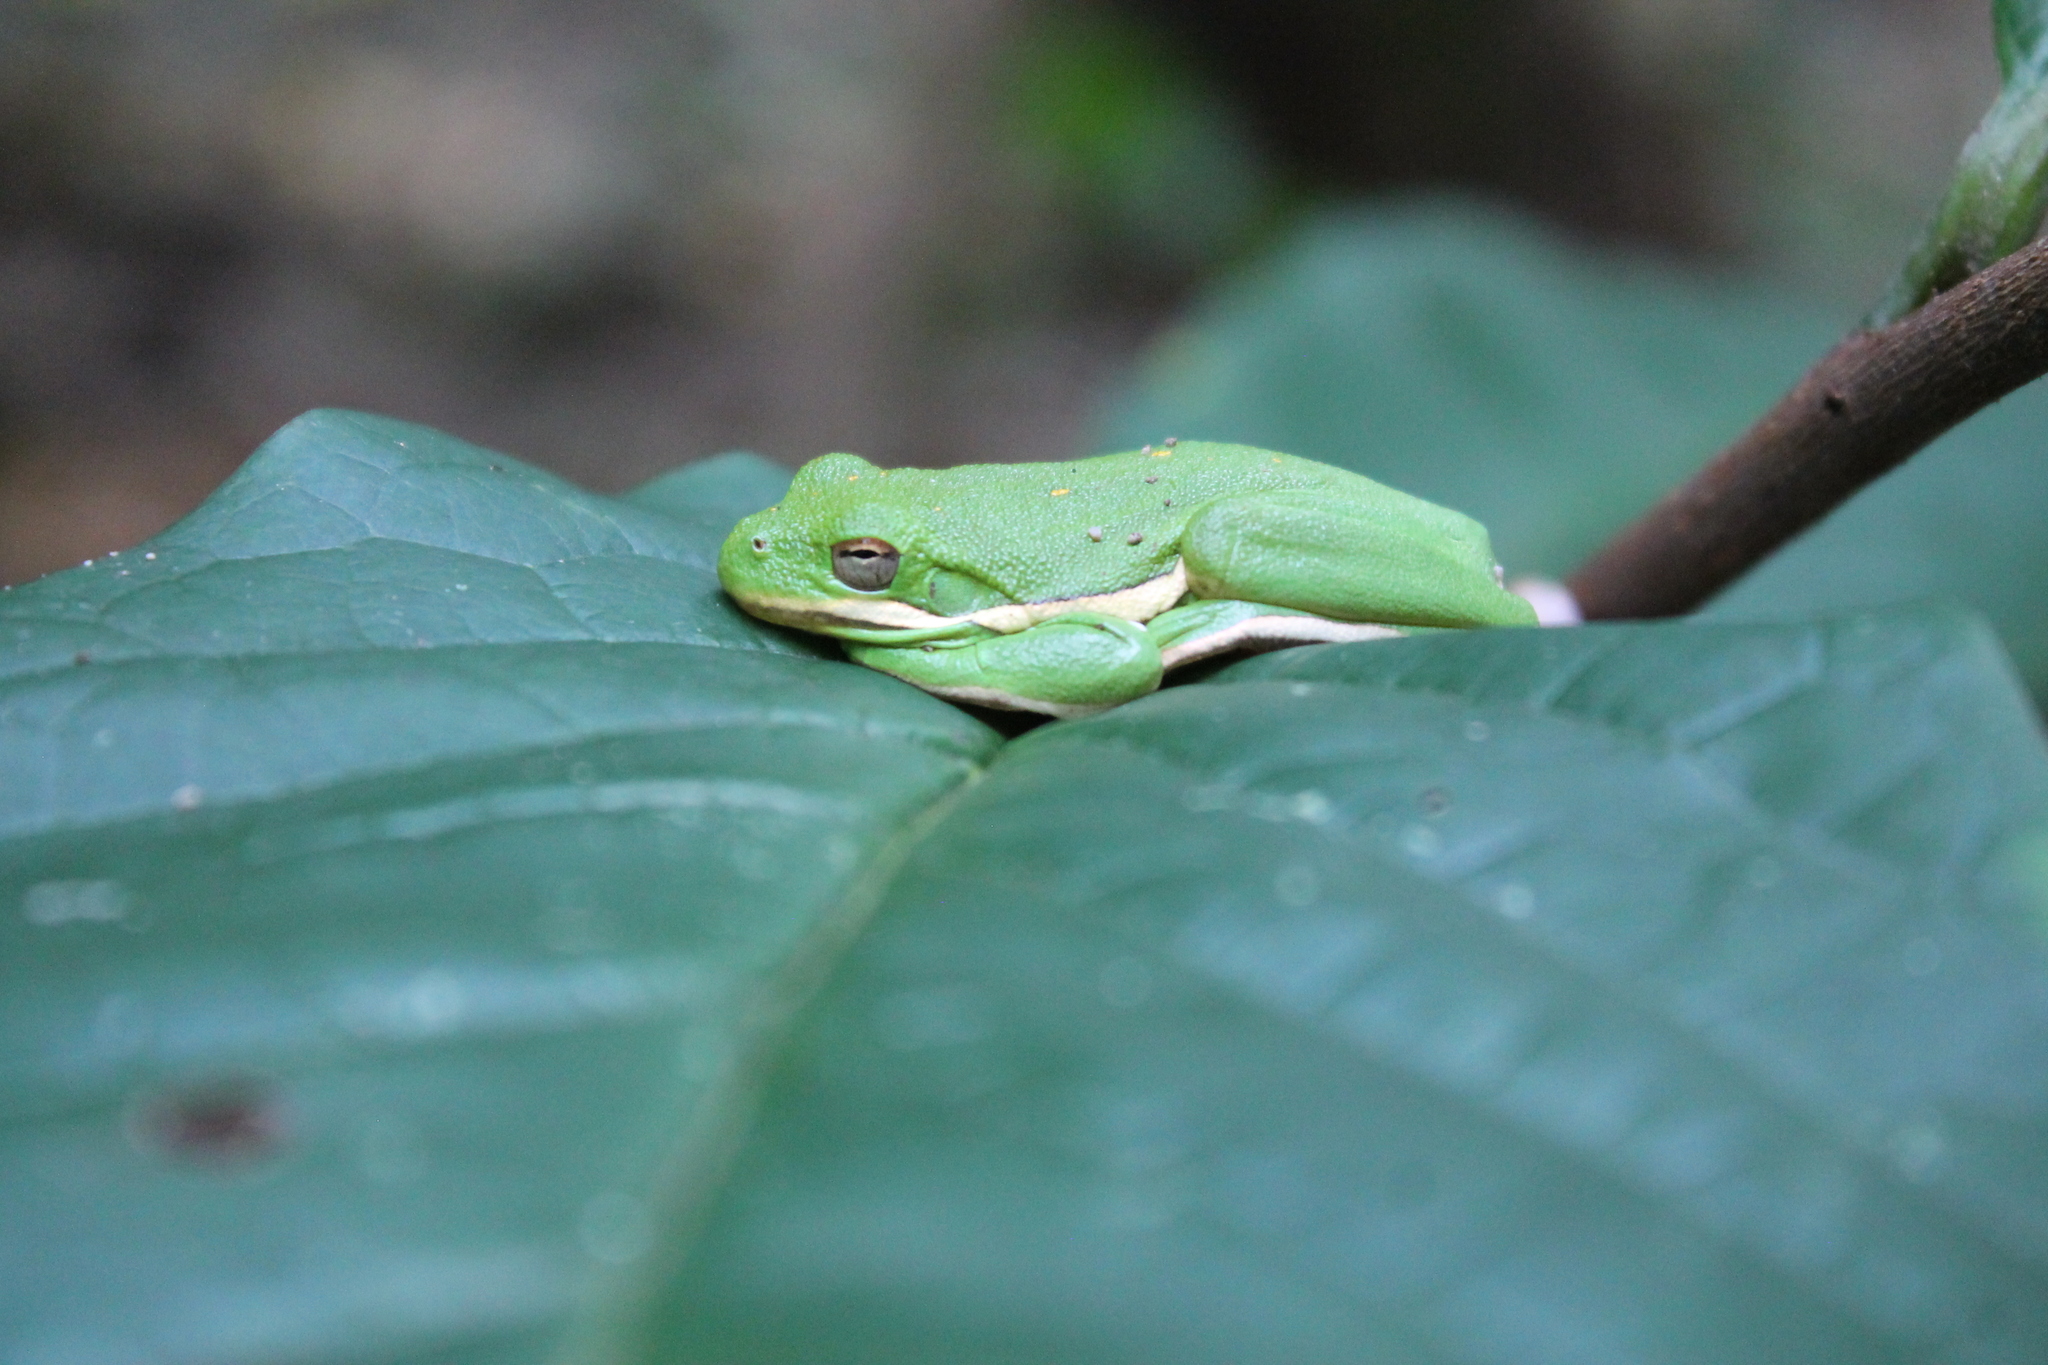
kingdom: Animalia
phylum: Chordata
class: Amphibia
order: Anura
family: Hylidae
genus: Dryophytes
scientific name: Dryophytes cinereus
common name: Green treefrog
